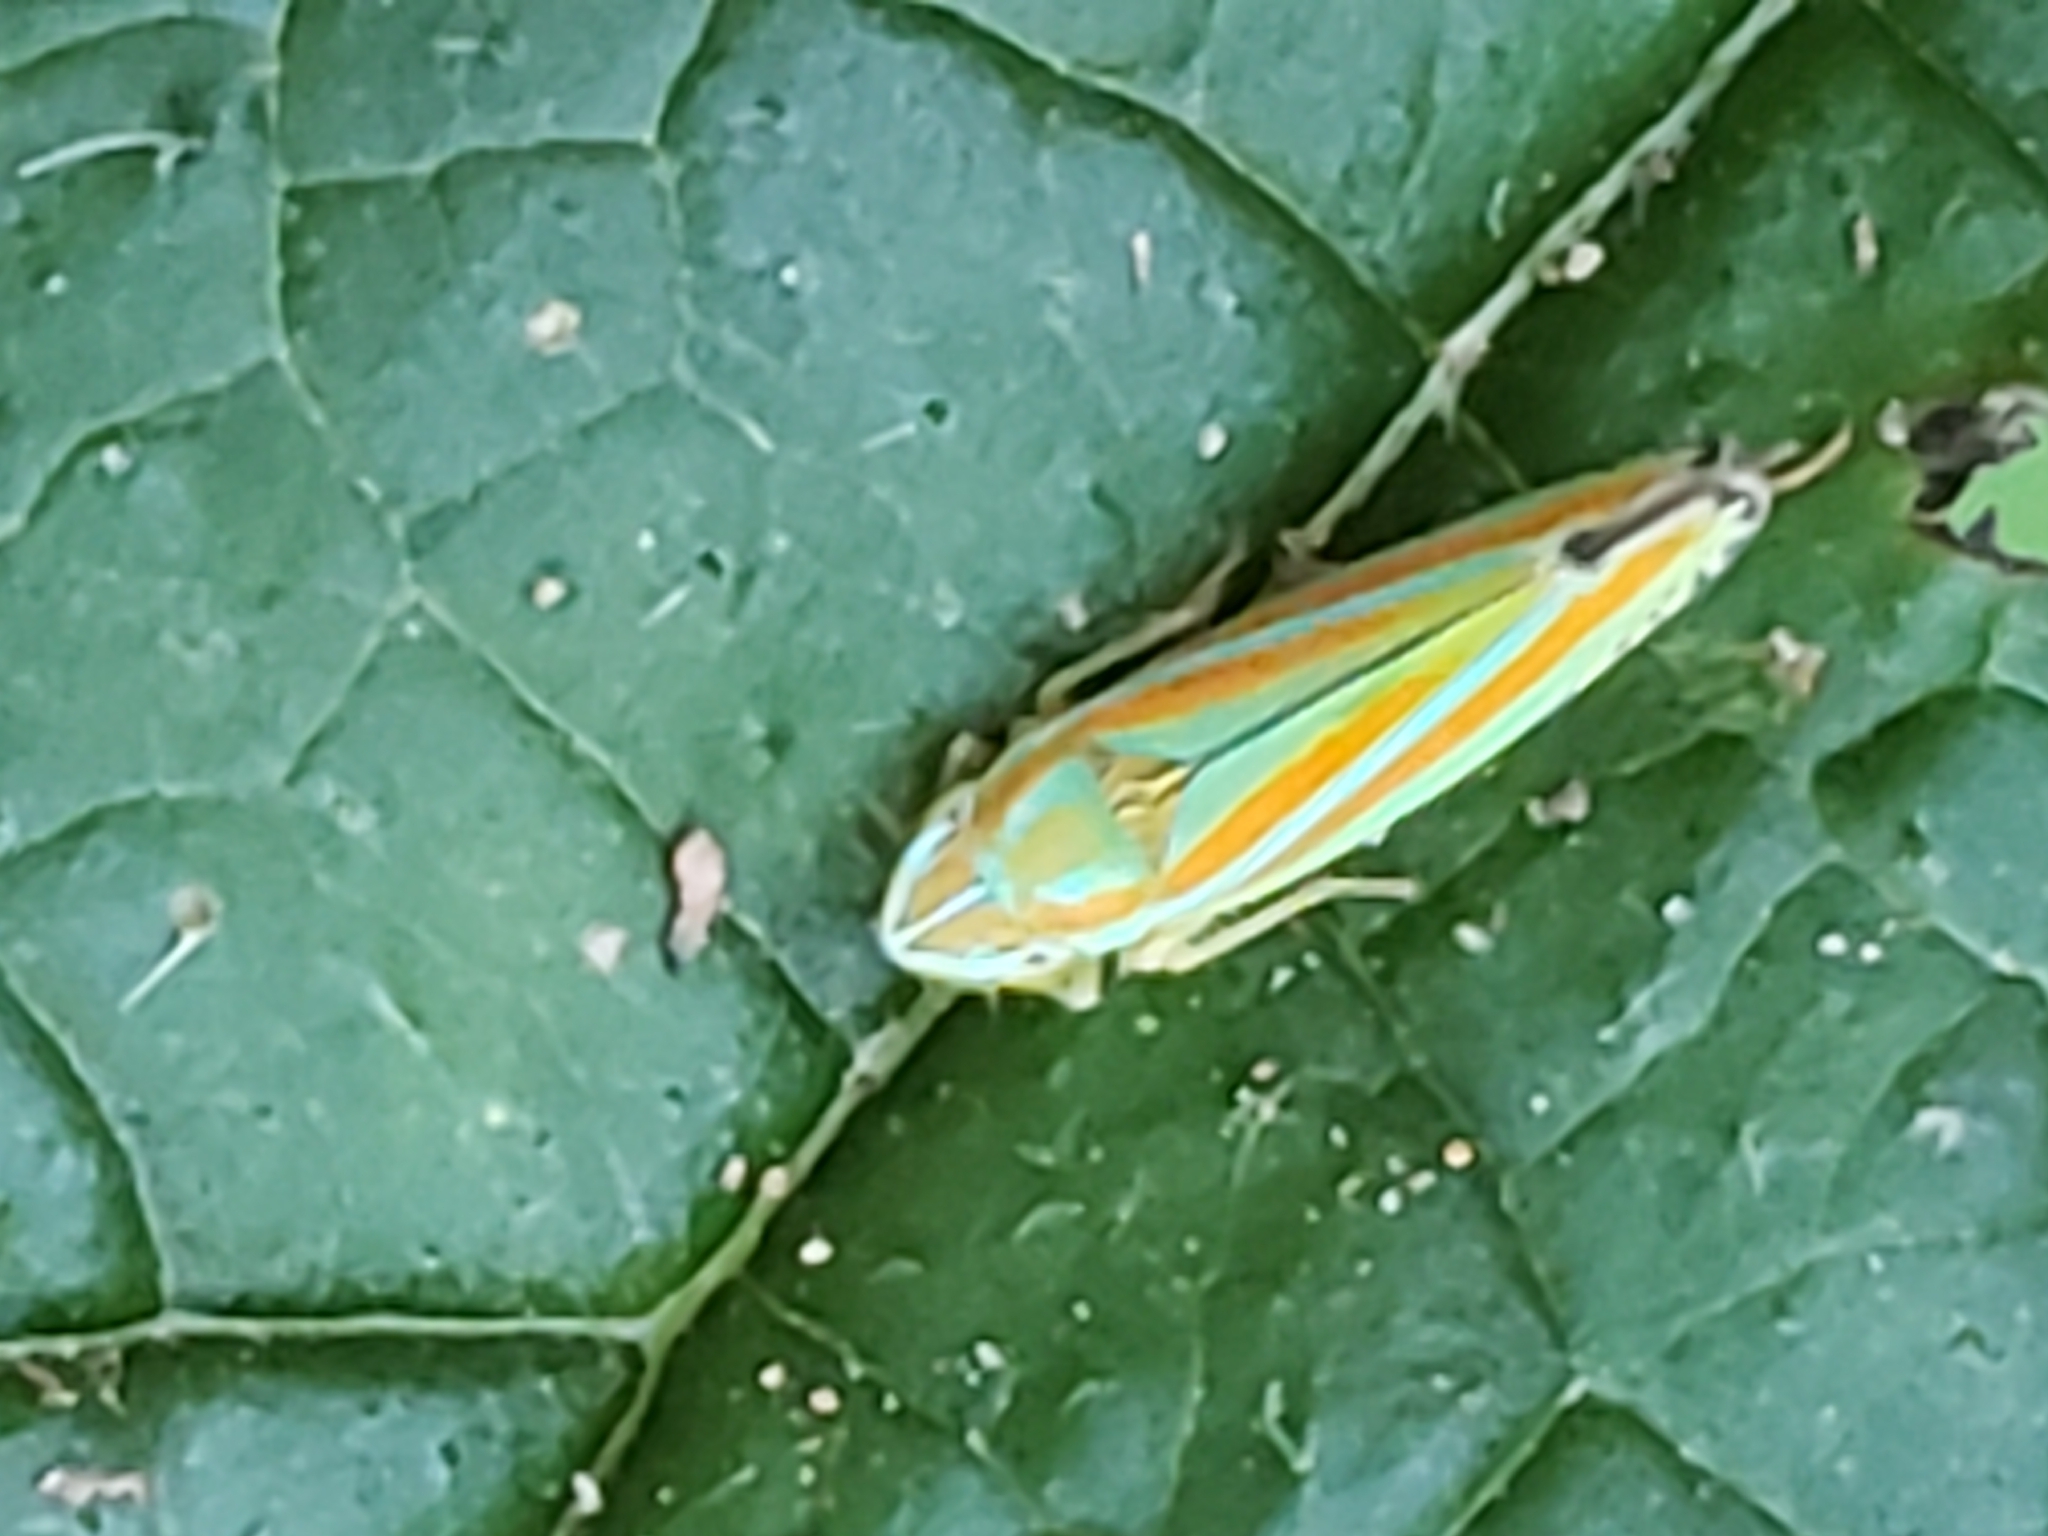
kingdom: Animalia
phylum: Arthropoda
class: Insecta
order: Hemiptera
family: Cicadellidae
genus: Graphocephala
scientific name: Graphocephala versuta
